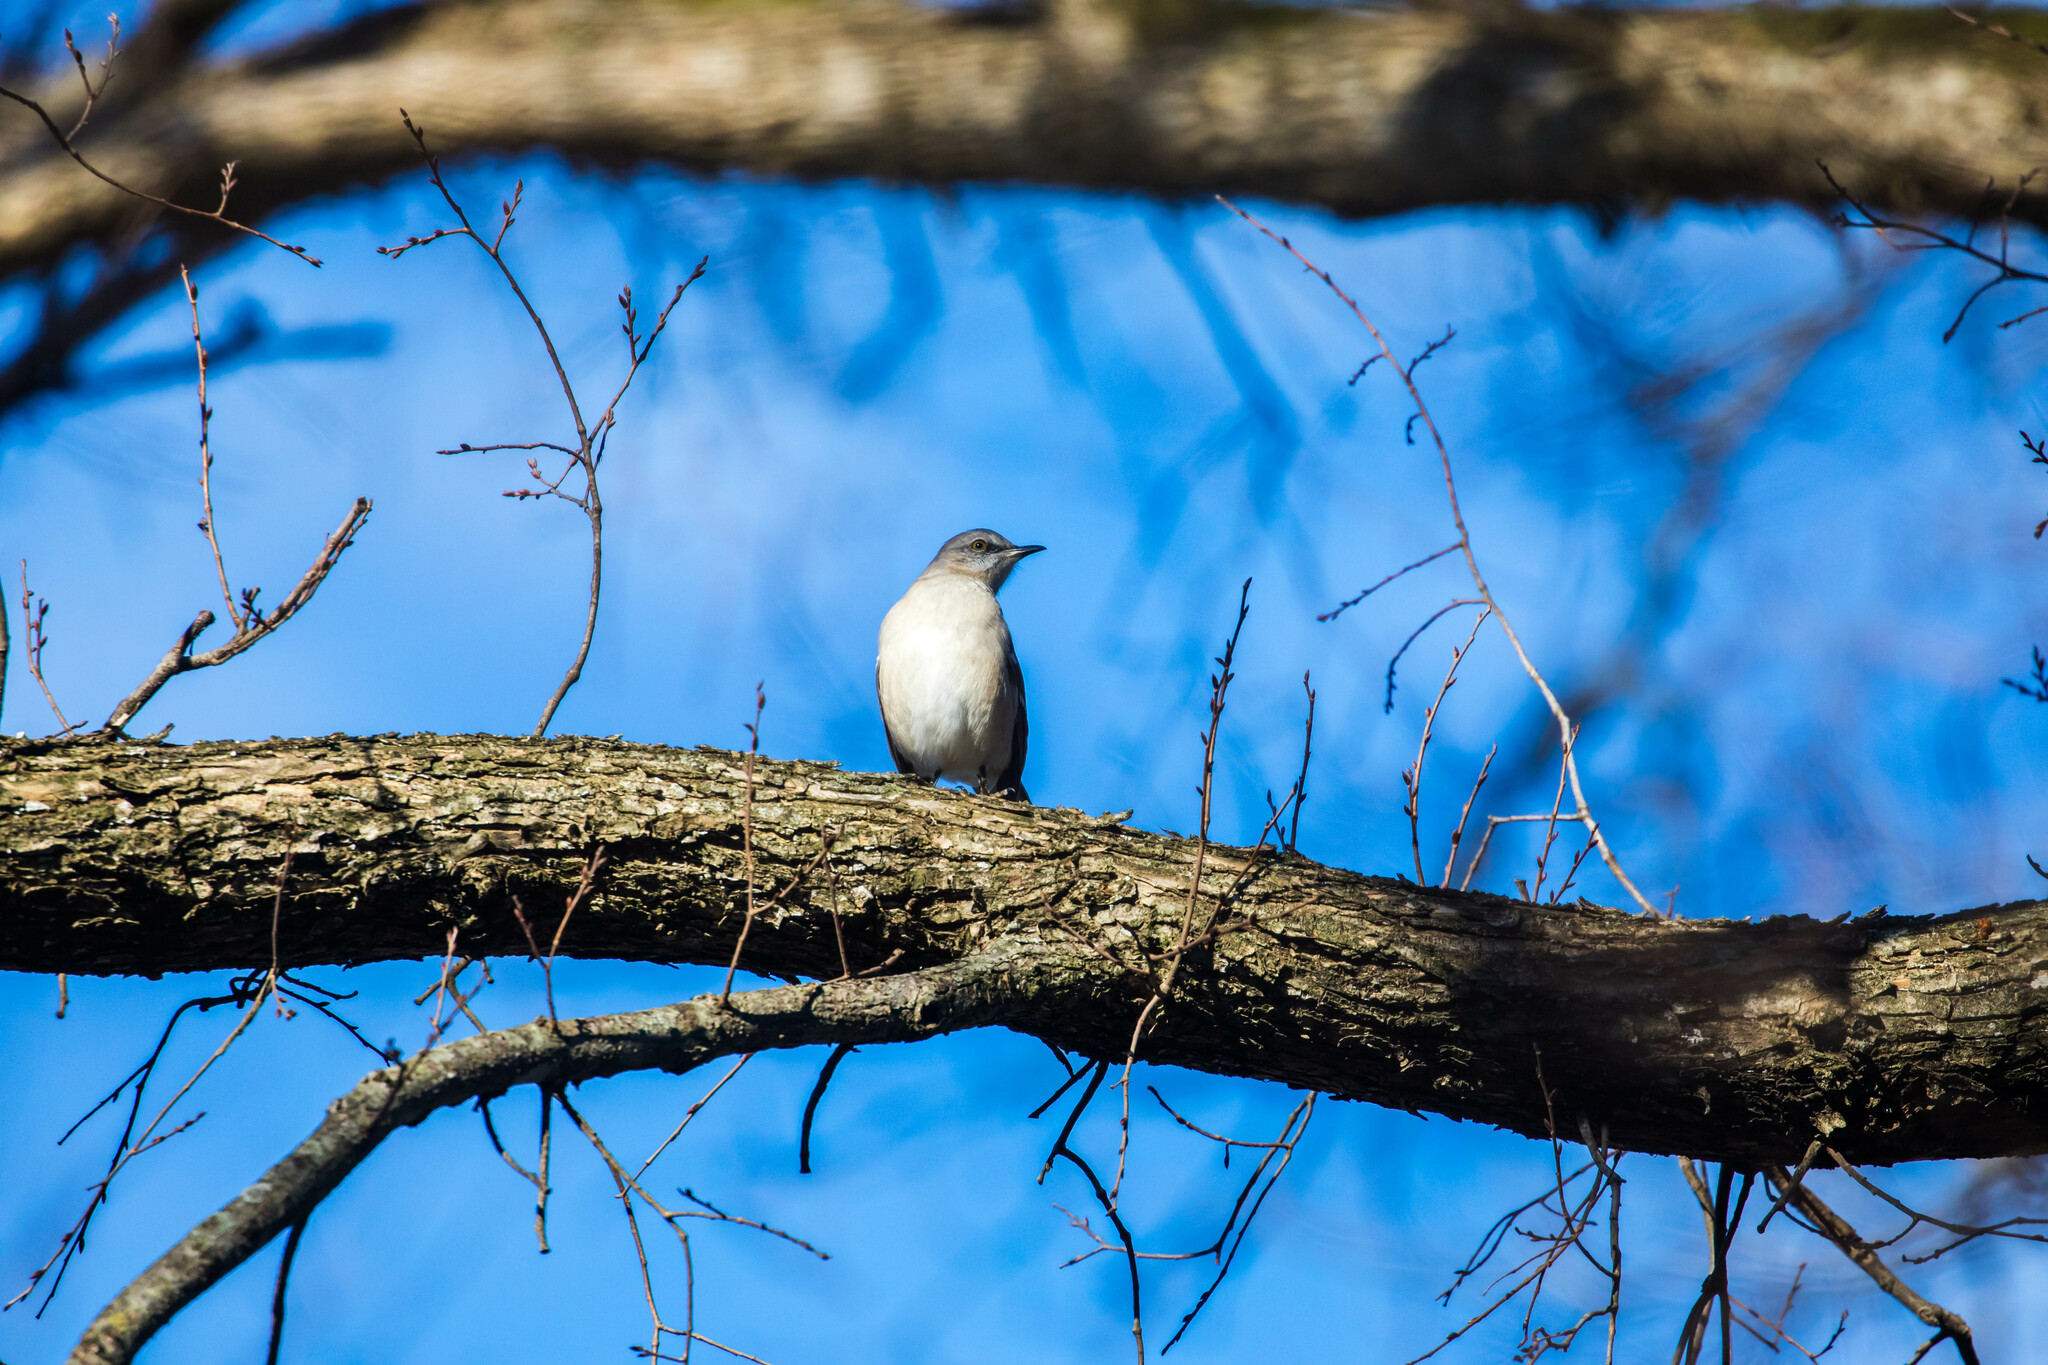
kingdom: Animalia
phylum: Chordata
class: Aves
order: Passeriformes
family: Mimidae
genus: Mimus
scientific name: Mimus polyglottos
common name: Northern mockingbird
